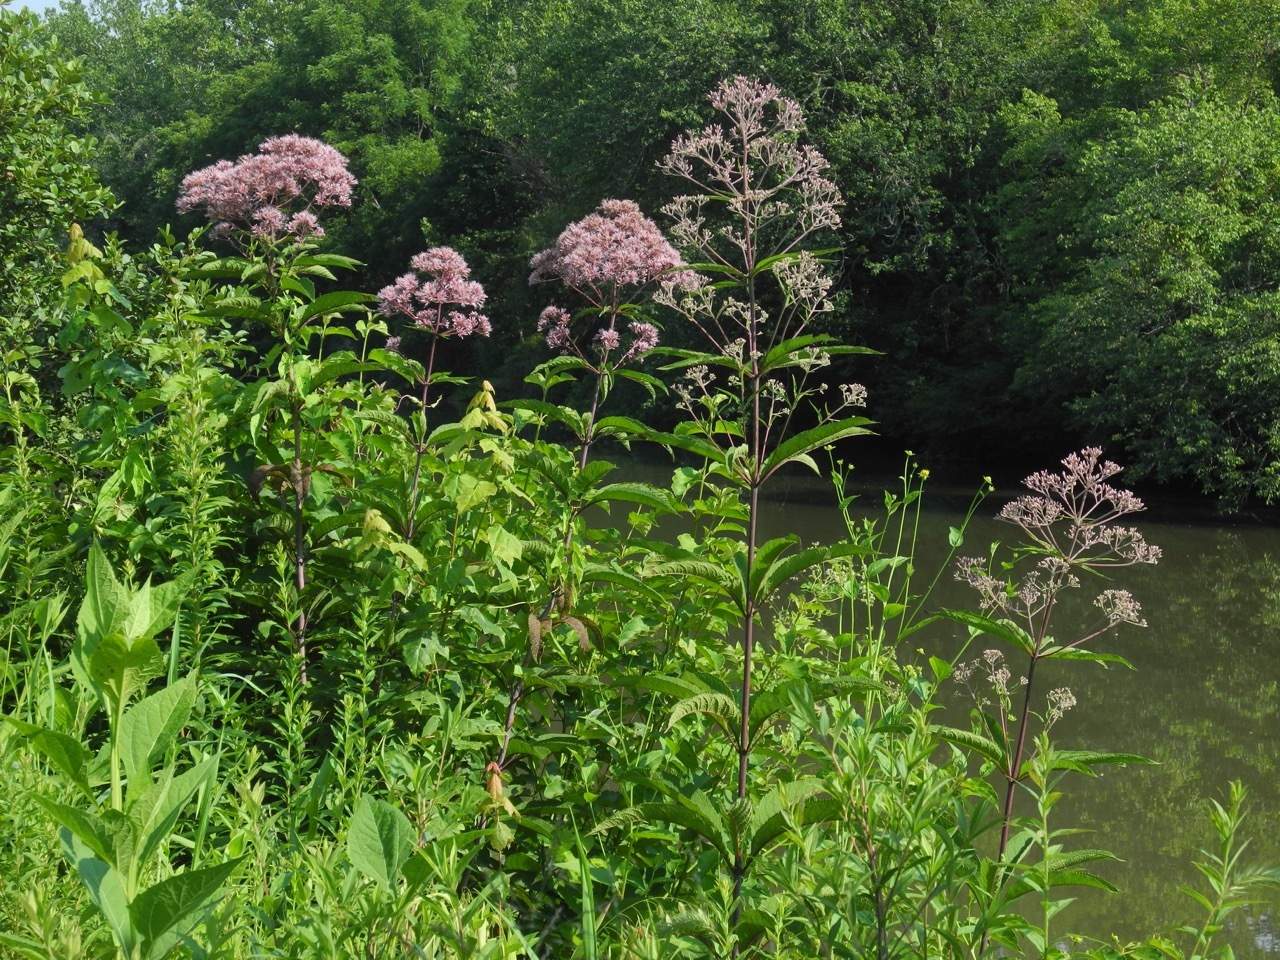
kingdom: Plantae
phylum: Tracheophyta
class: Magnoliopsida
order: Asterales
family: Asteraceae
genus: Eutrochium
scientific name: Eutrochium fistulosum
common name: Trumpetweed
